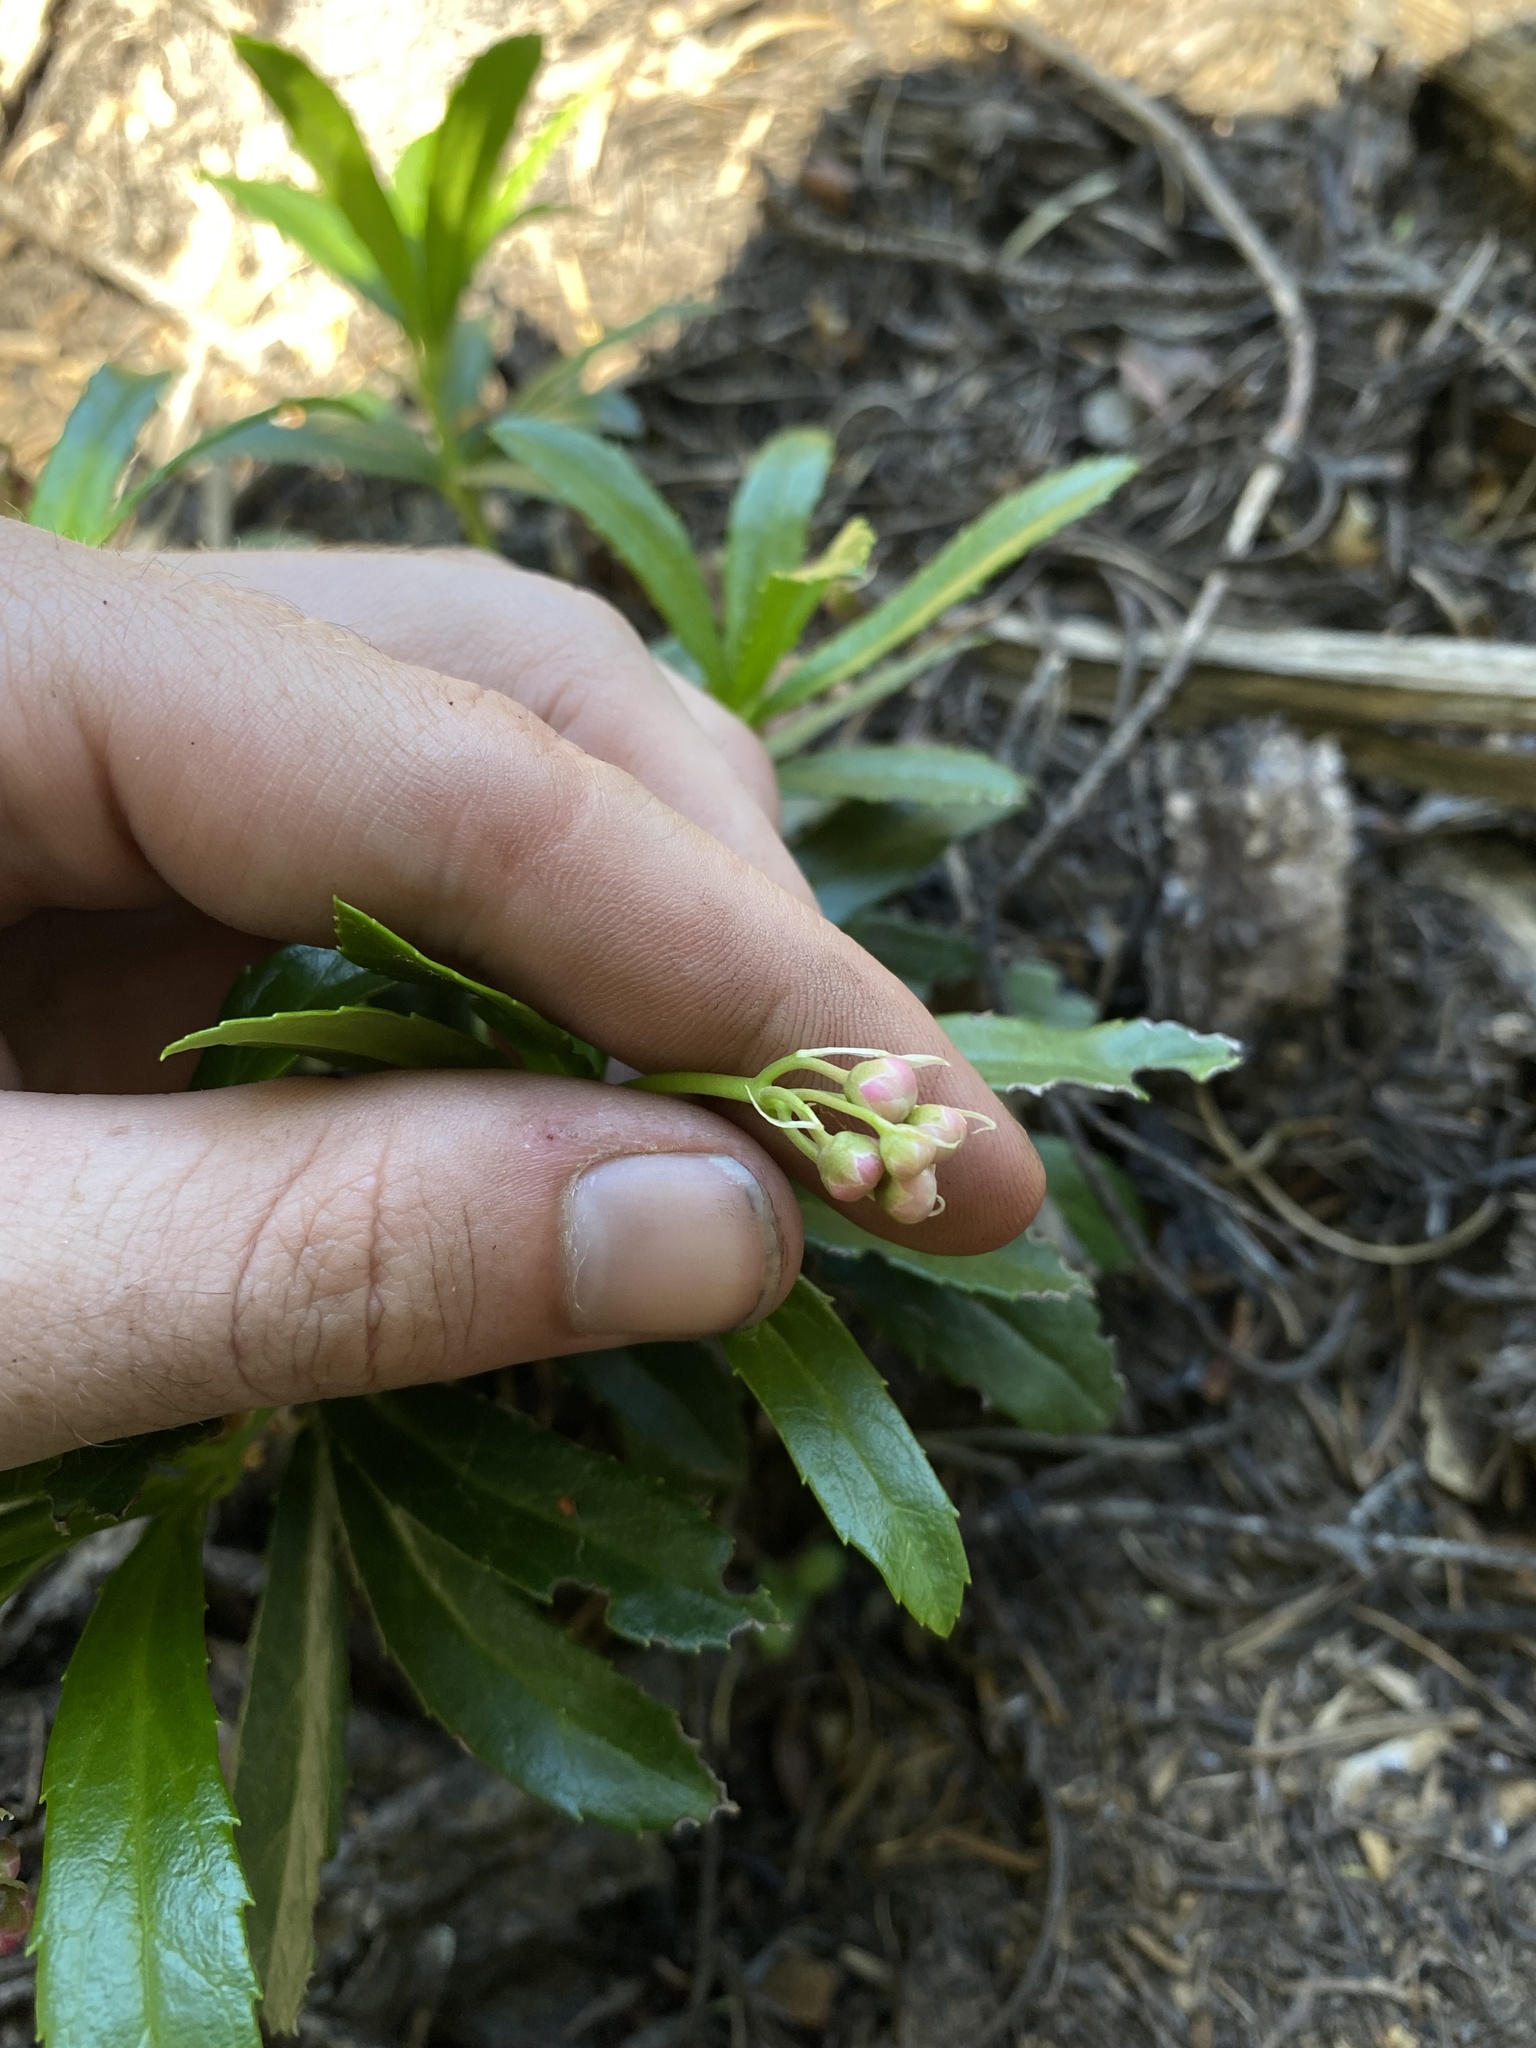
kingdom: Plantae
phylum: Tracheophyta
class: Magnoliopsida
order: Ericales
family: Ericaceae
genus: Chimaphila
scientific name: Chimaphila umbellata
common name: Pipsissewa
